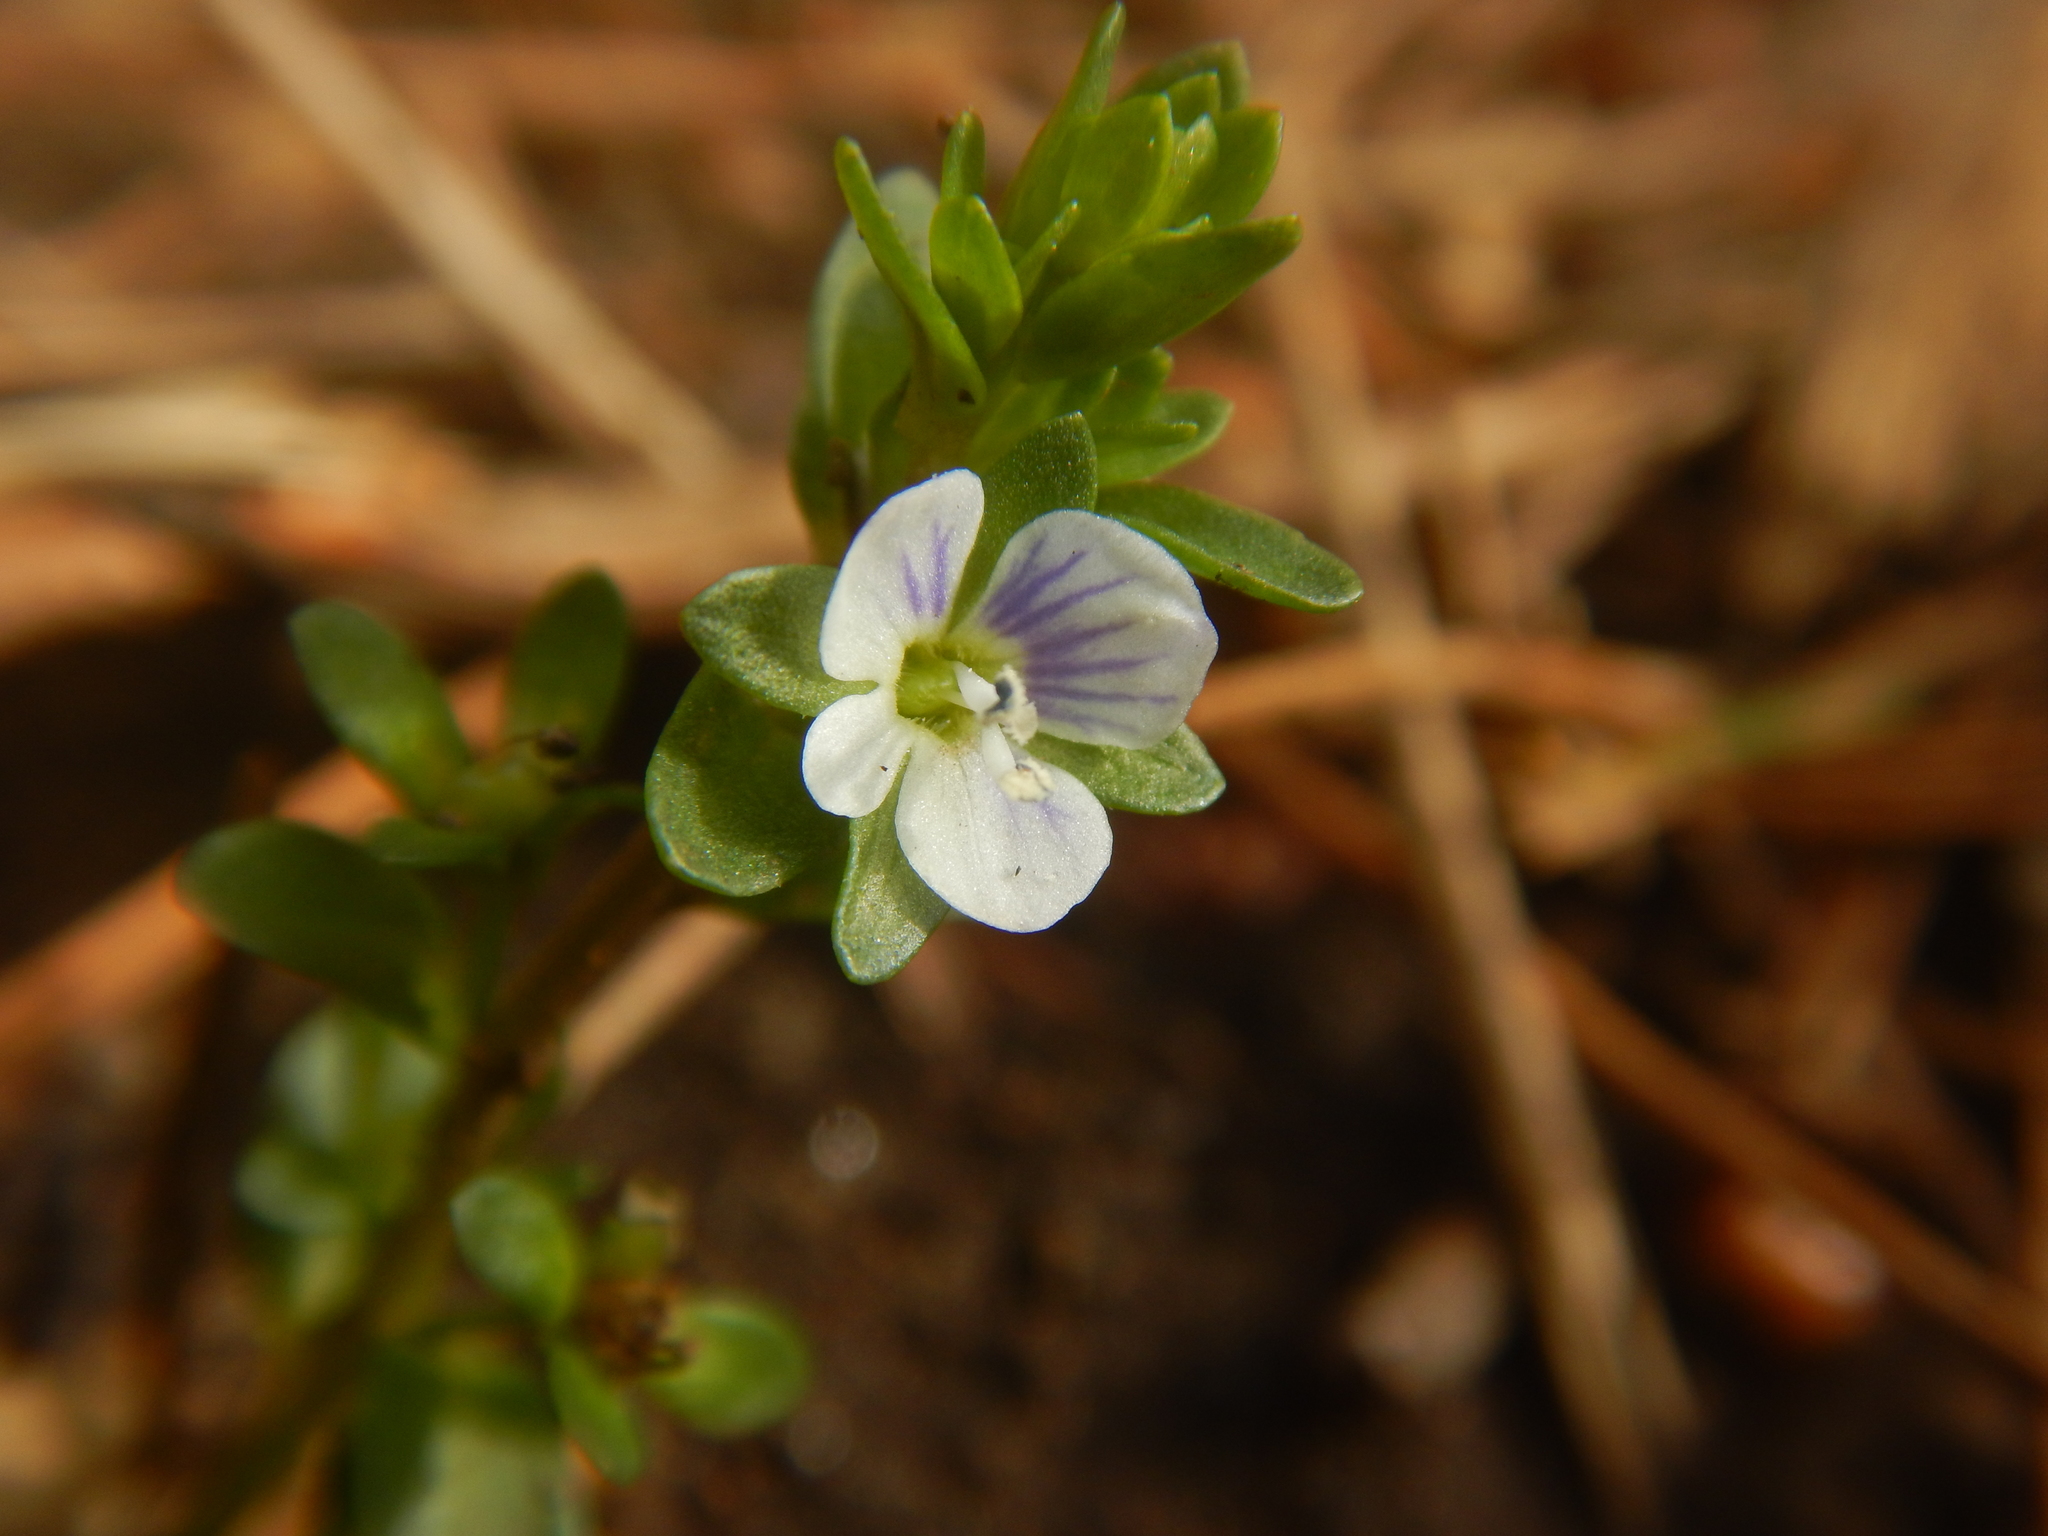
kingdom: Plantae
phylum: Tracheophyta
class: Magnoliopsida
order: Lamiales
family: Plantaginaceae
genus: Veronica
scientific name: Veronica serpyllifolia
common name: Thyme-leaved speedwell
